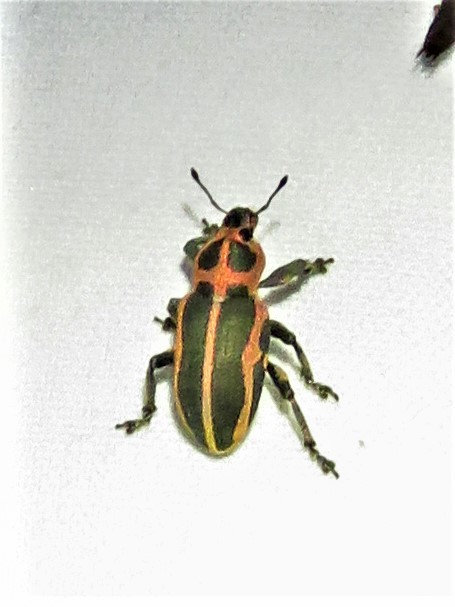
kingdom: Animalia
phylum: Arthropoda
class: Insecta
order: Coleoptera
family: Curculionidae
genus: Eudiagogus
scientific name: Eudiagogus pulcher
